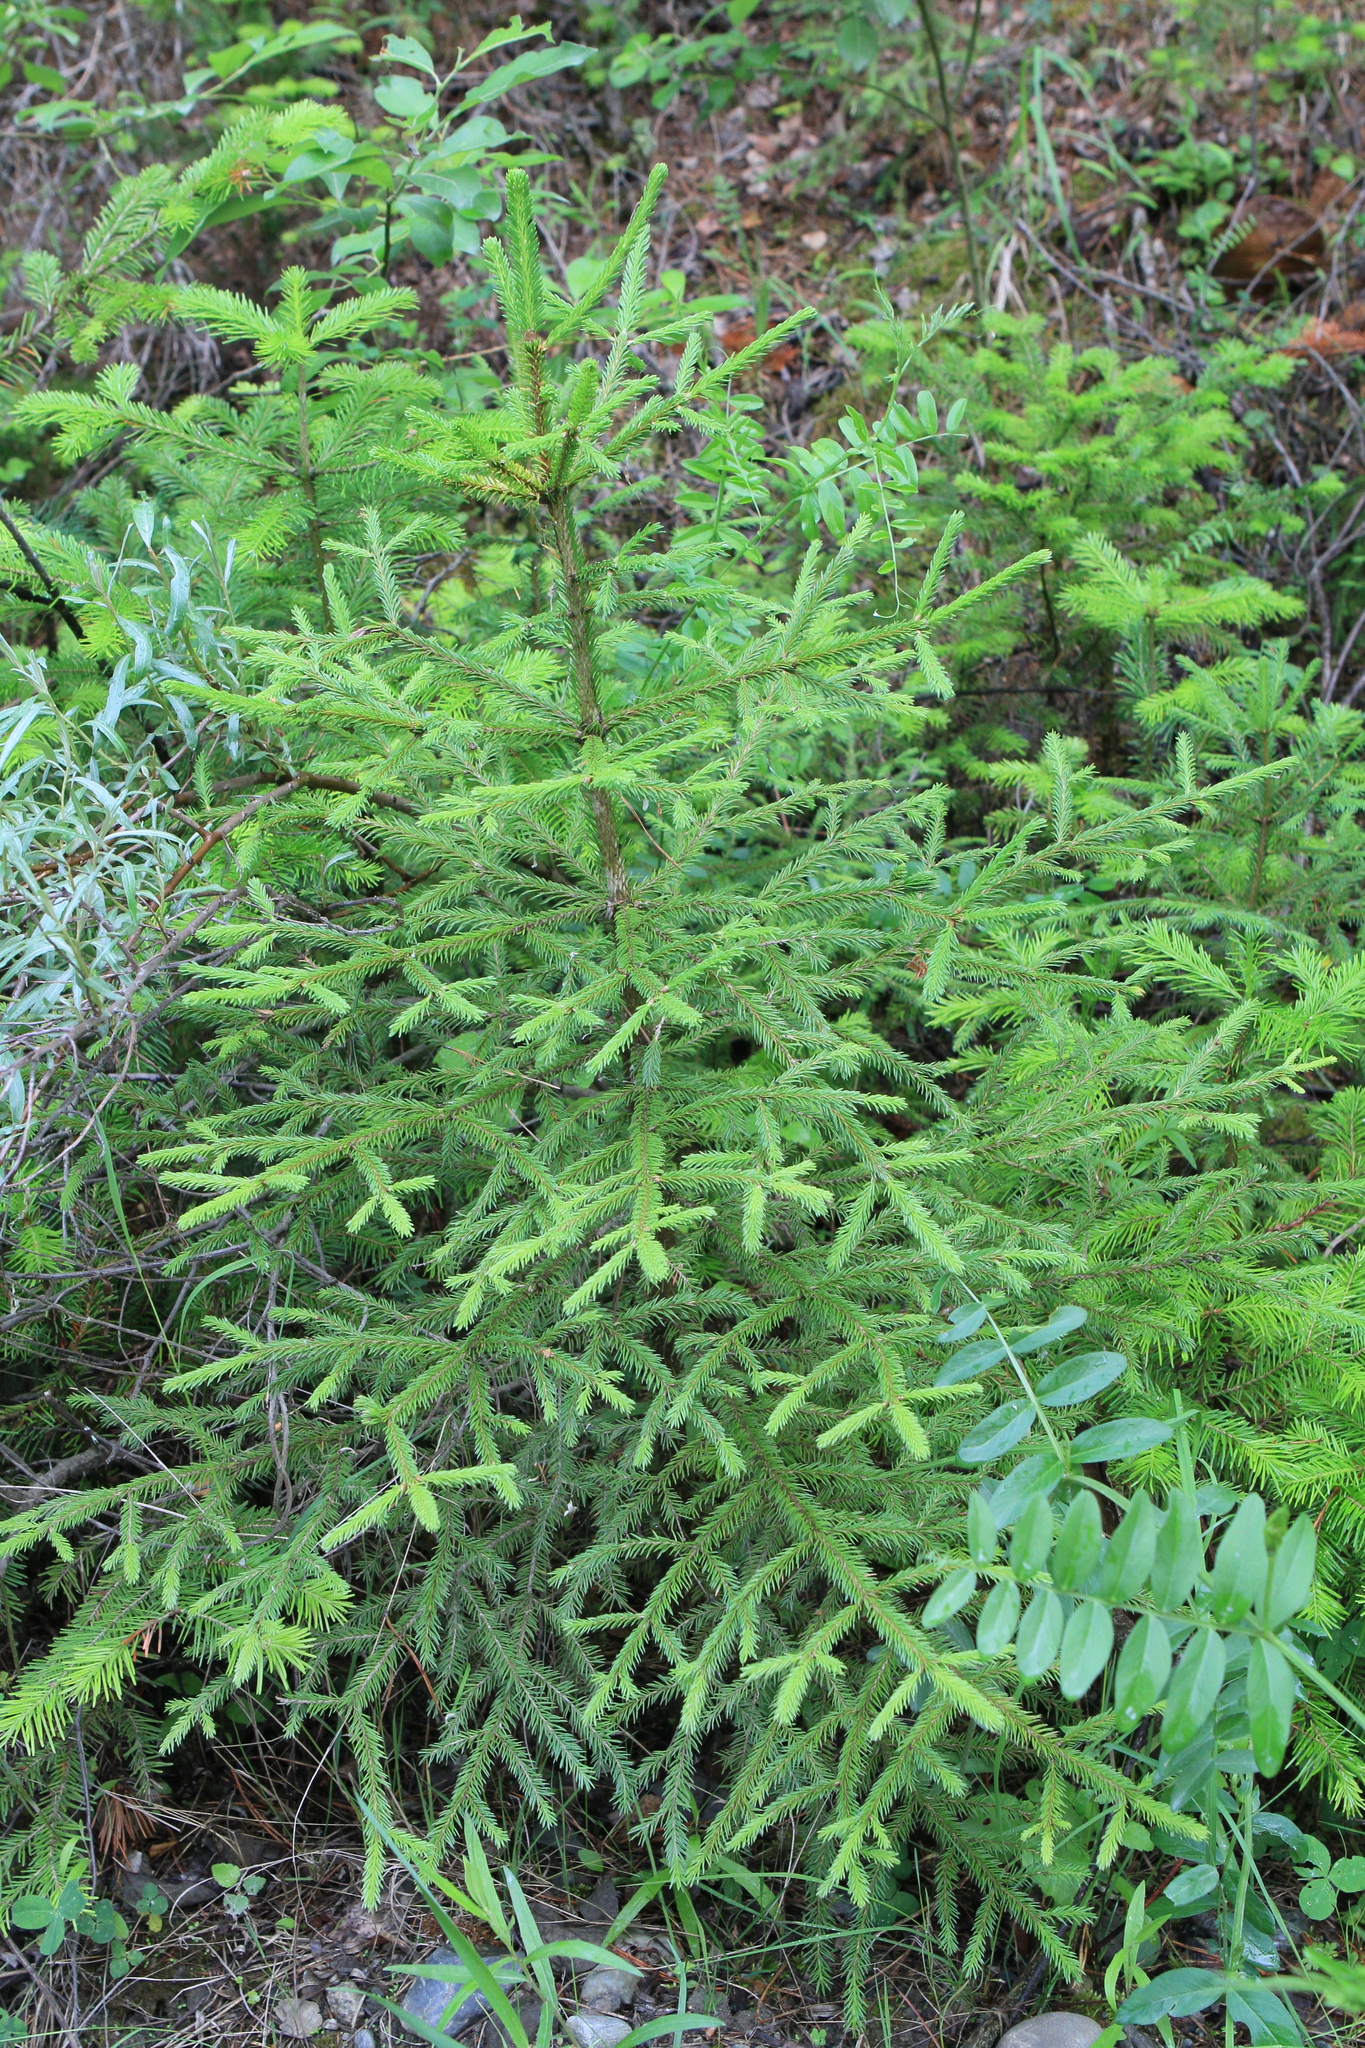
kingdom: Plantae
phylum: Tracheophyta
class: Pinopsida
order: Pinales
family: Pinaceae
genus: Picea
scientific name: Picea obovata
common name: Siberian spruce
